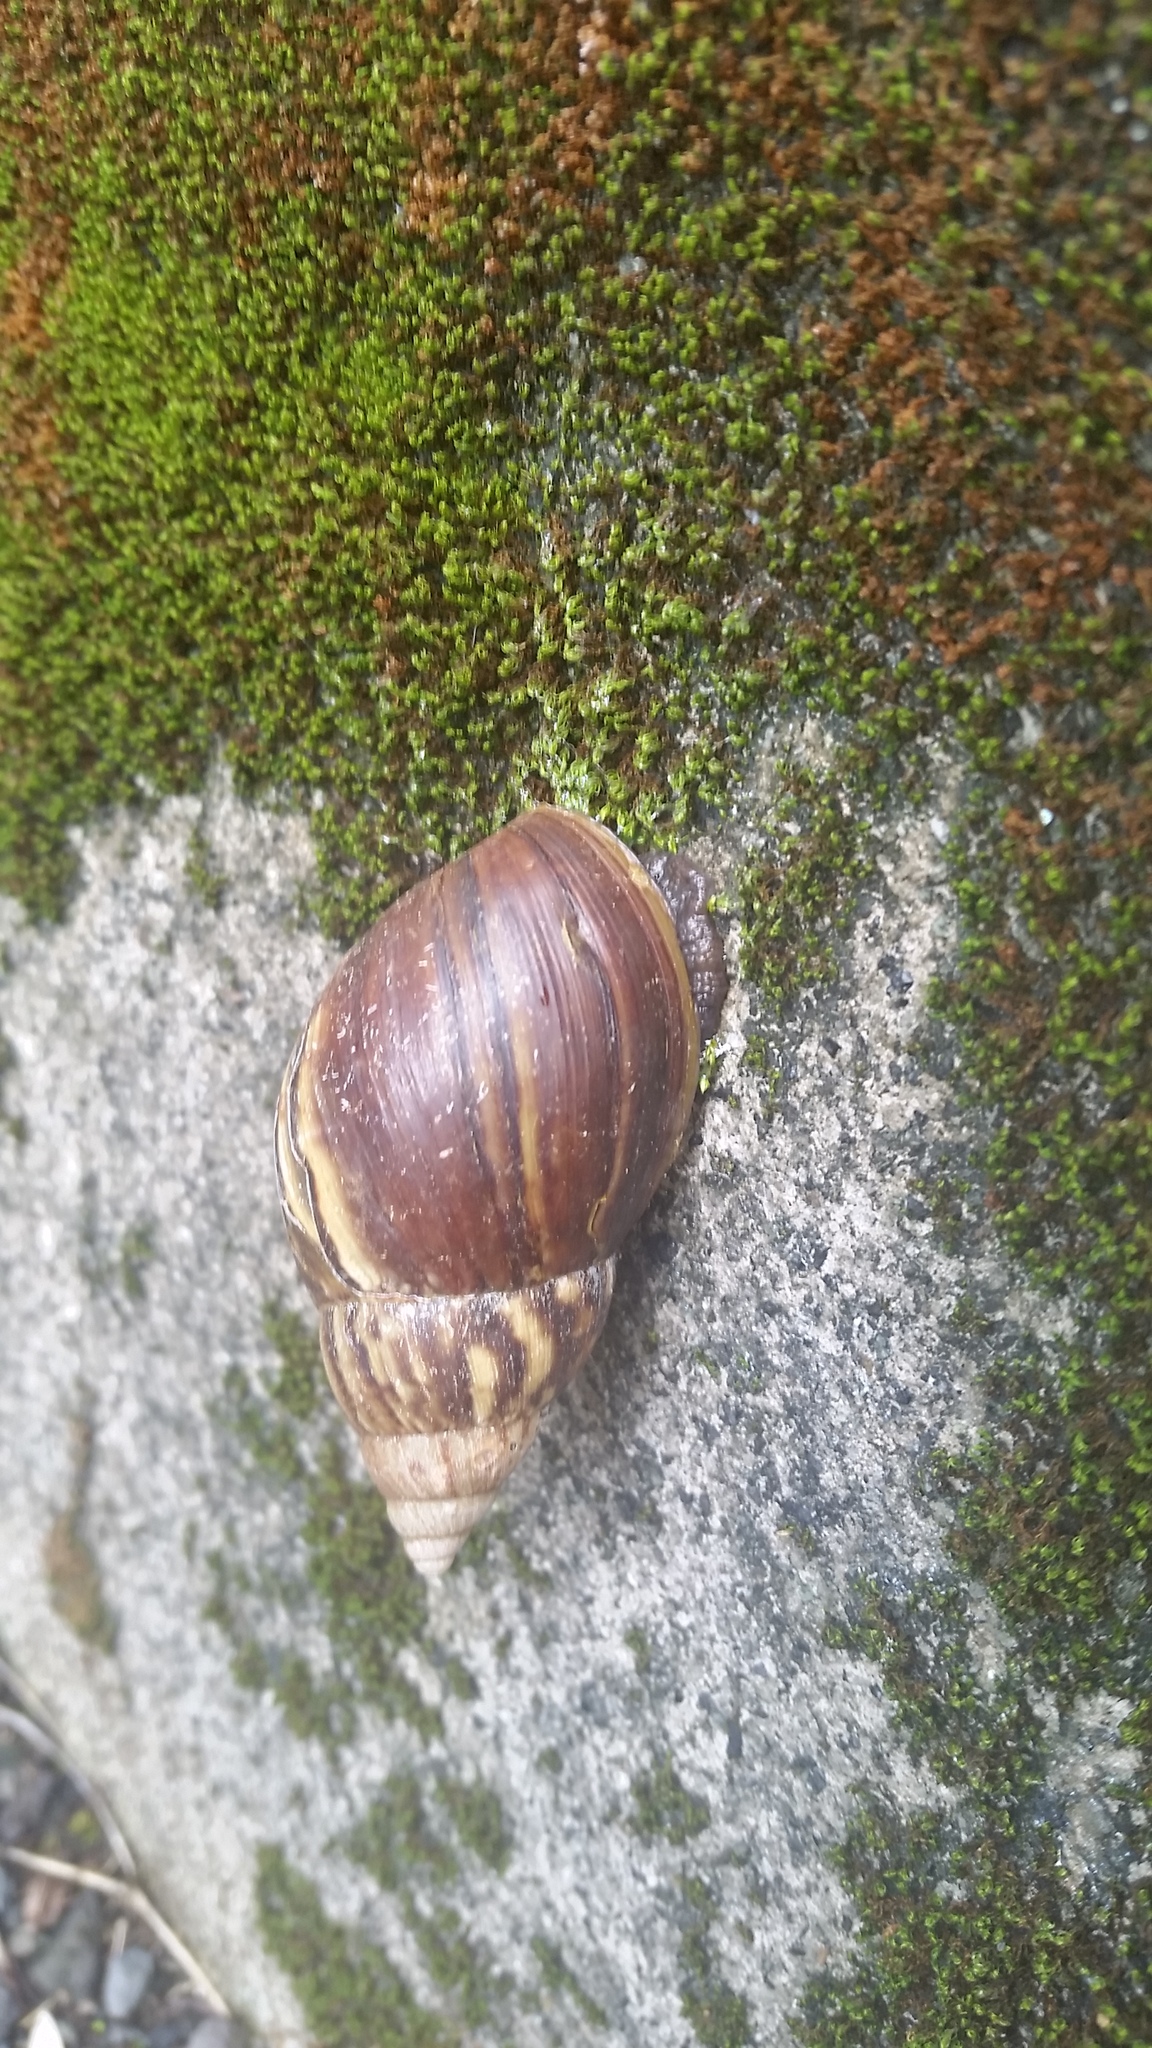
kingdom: Animalia
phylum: Mollusca
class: Gastropoda
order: Stylommatophora
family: Achatinidae
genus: Lissachatina
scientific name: Lissachatina fulica
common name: Giant african snail
